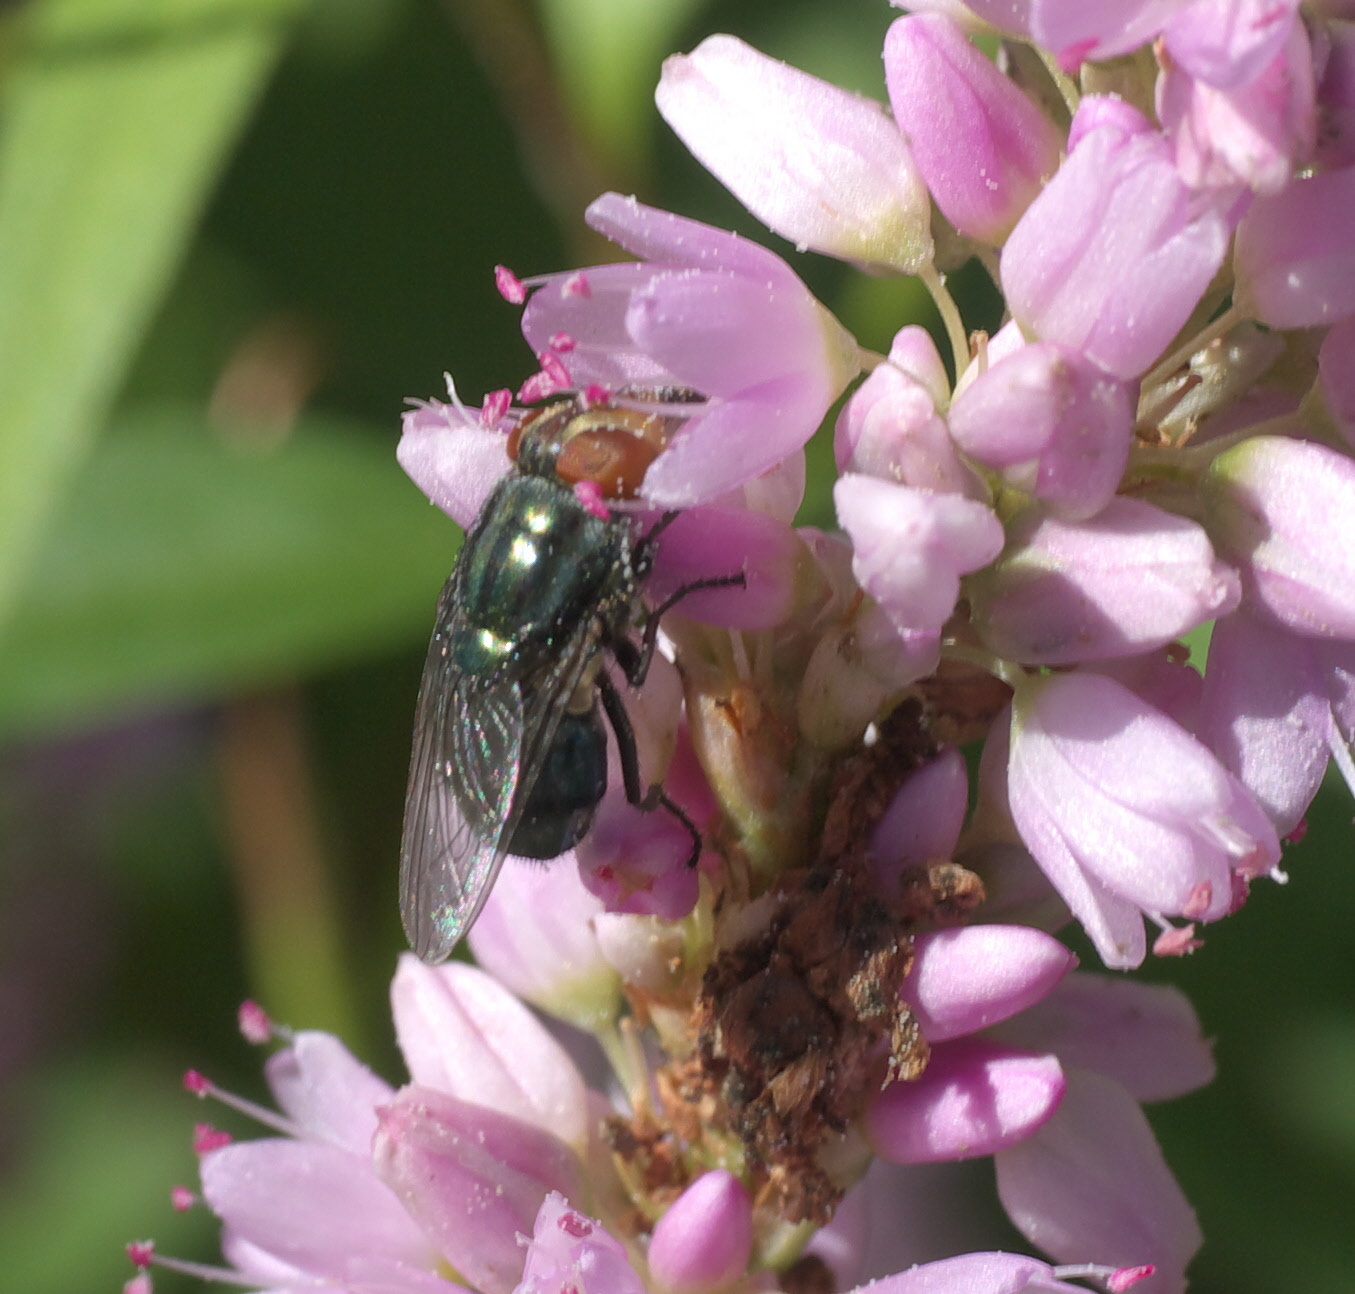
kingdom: Animalia
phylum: Arthropoda
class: Insecta
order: Diptera
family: Calliphoridae
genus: Cochliomyia
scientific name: Cochliomyia macellaria
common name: Secondary screwworm
